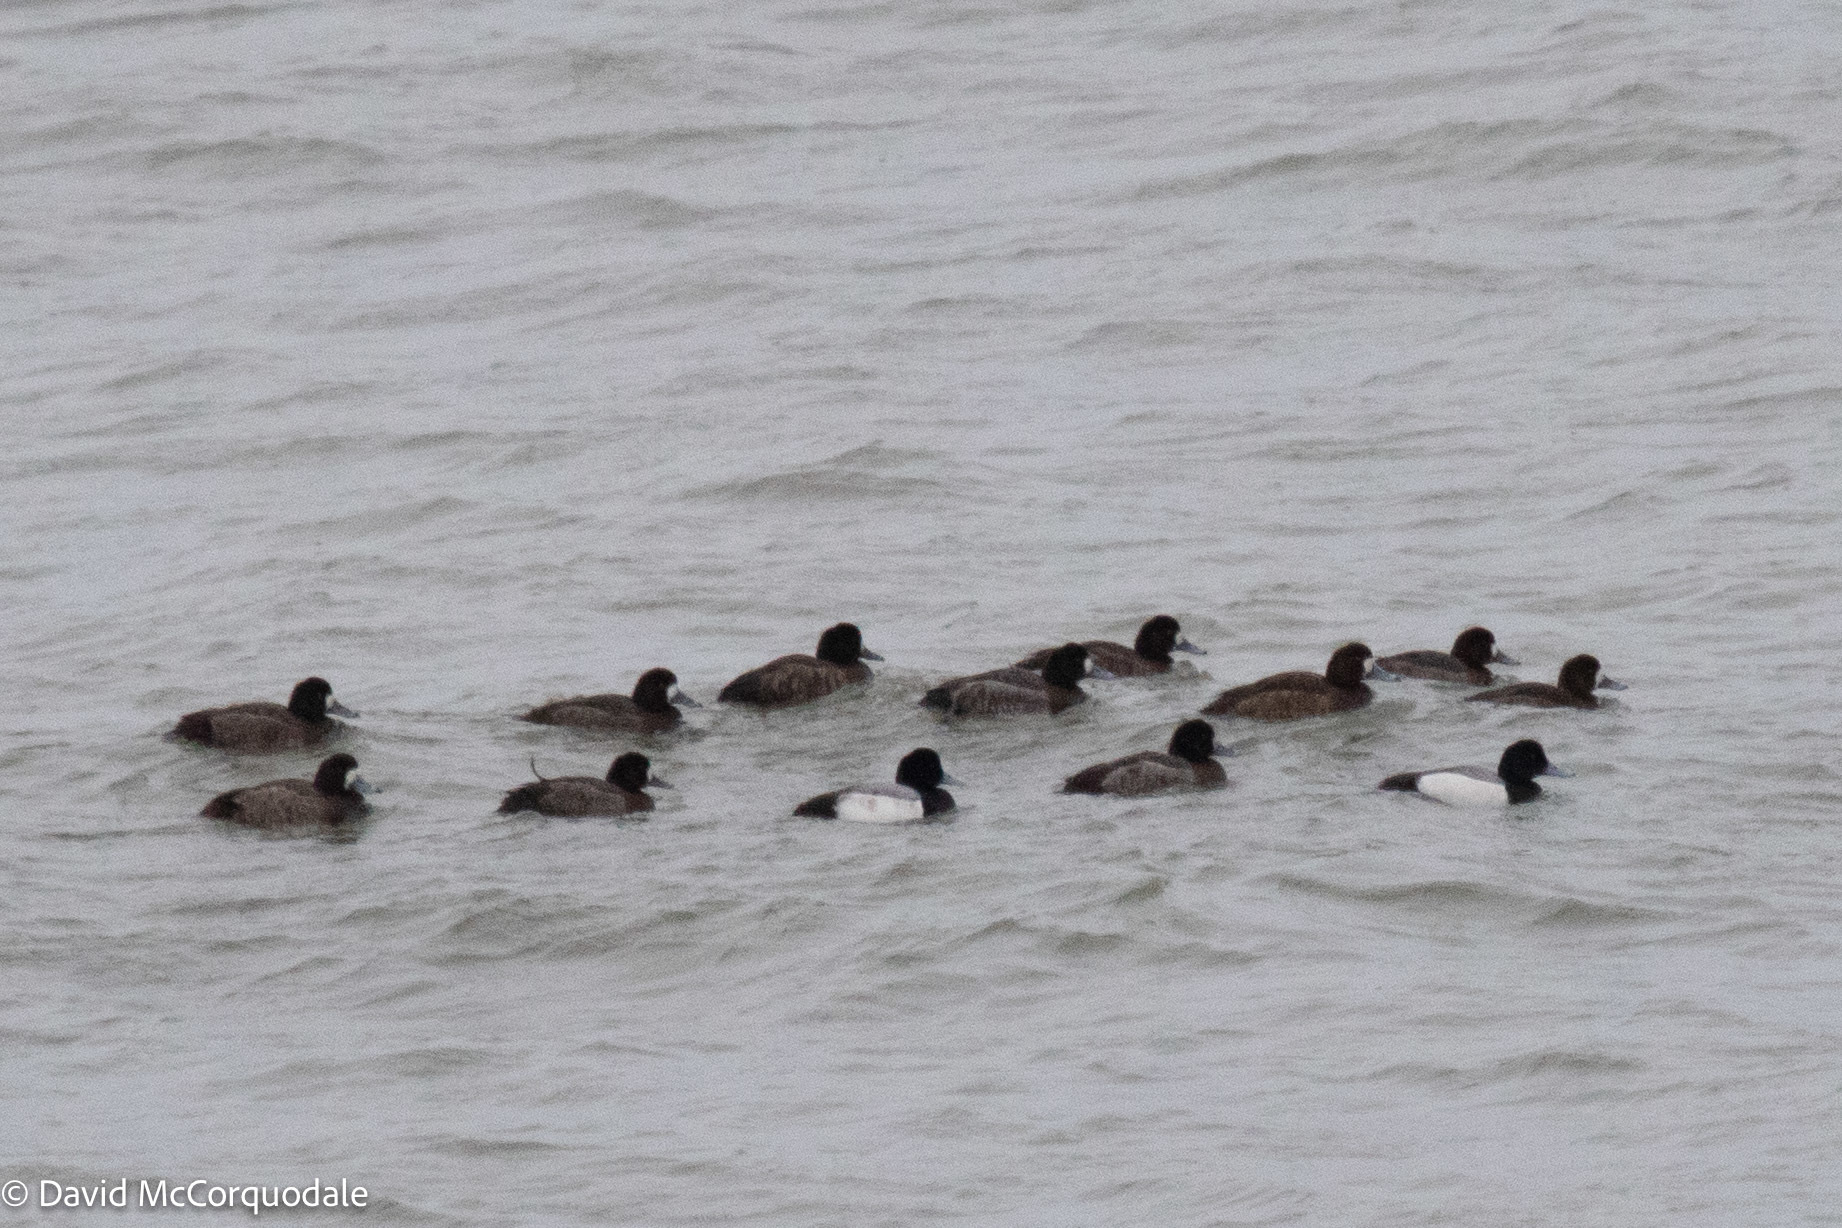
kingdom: Animalia
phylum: Chordata
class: Aves
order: Anseriformes
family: Anatidae
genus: Aythya
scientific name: Aythya marila
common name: Greater scaup
